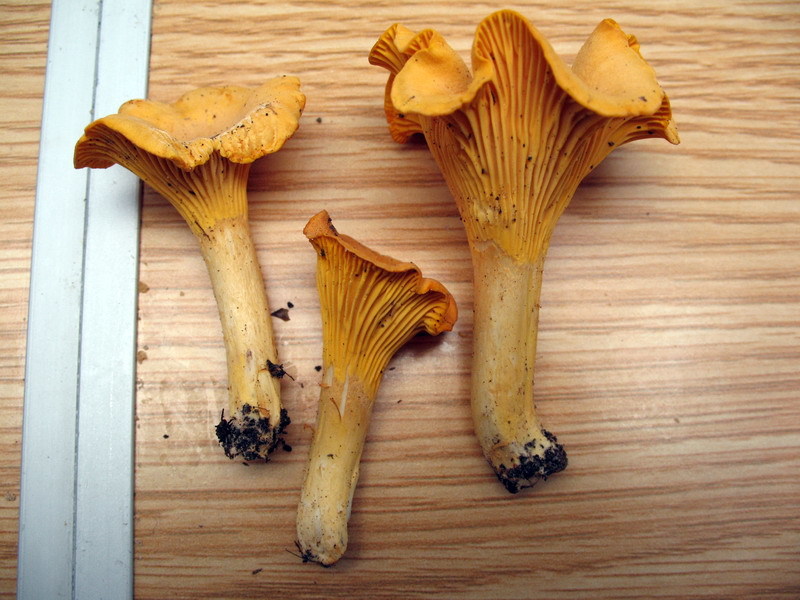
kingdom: Fungi
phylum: Basidiomycota
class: Agaricomycetes
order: Cantharellales
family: Hydnaceae
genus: Cantharellus
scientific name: Cantharellus cibarius
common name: Chanterelle
